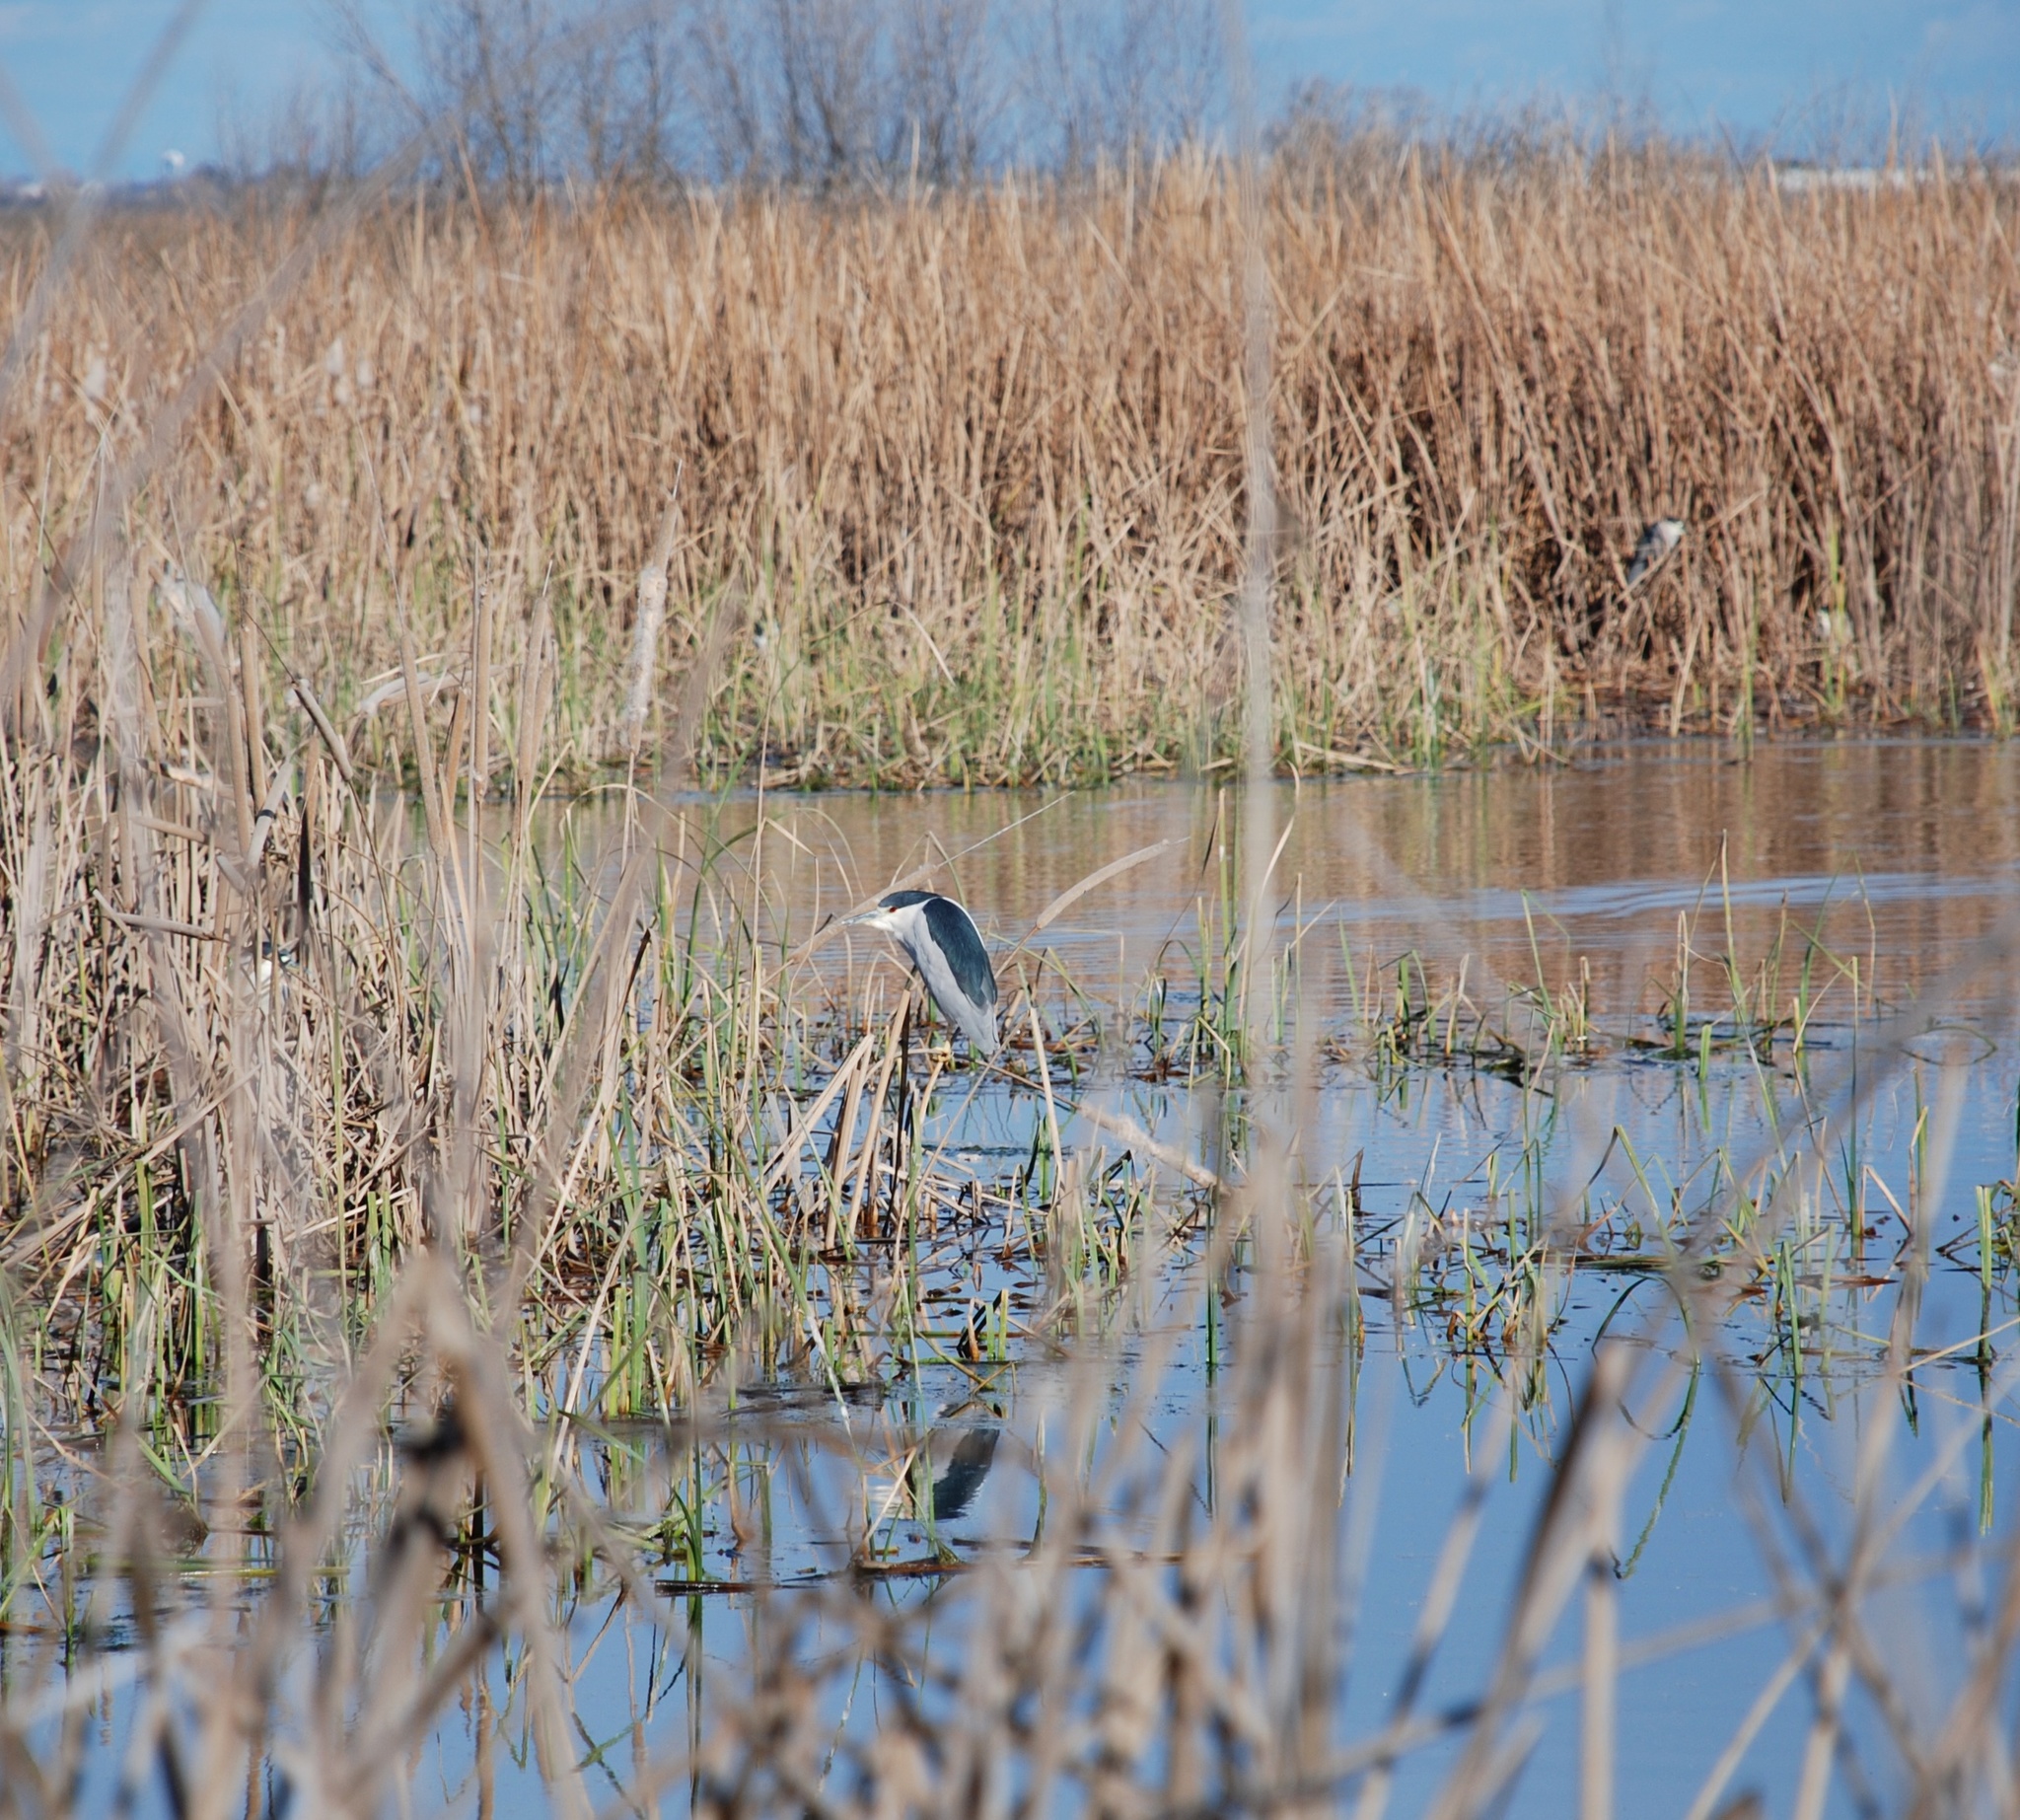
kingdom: Animalia
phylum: Chordata
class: Aves
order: Pelecaniformes
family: Ardeidae
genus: Nycticorax
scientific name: Nycticorax nycticorax
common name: Black-crowned night heron
